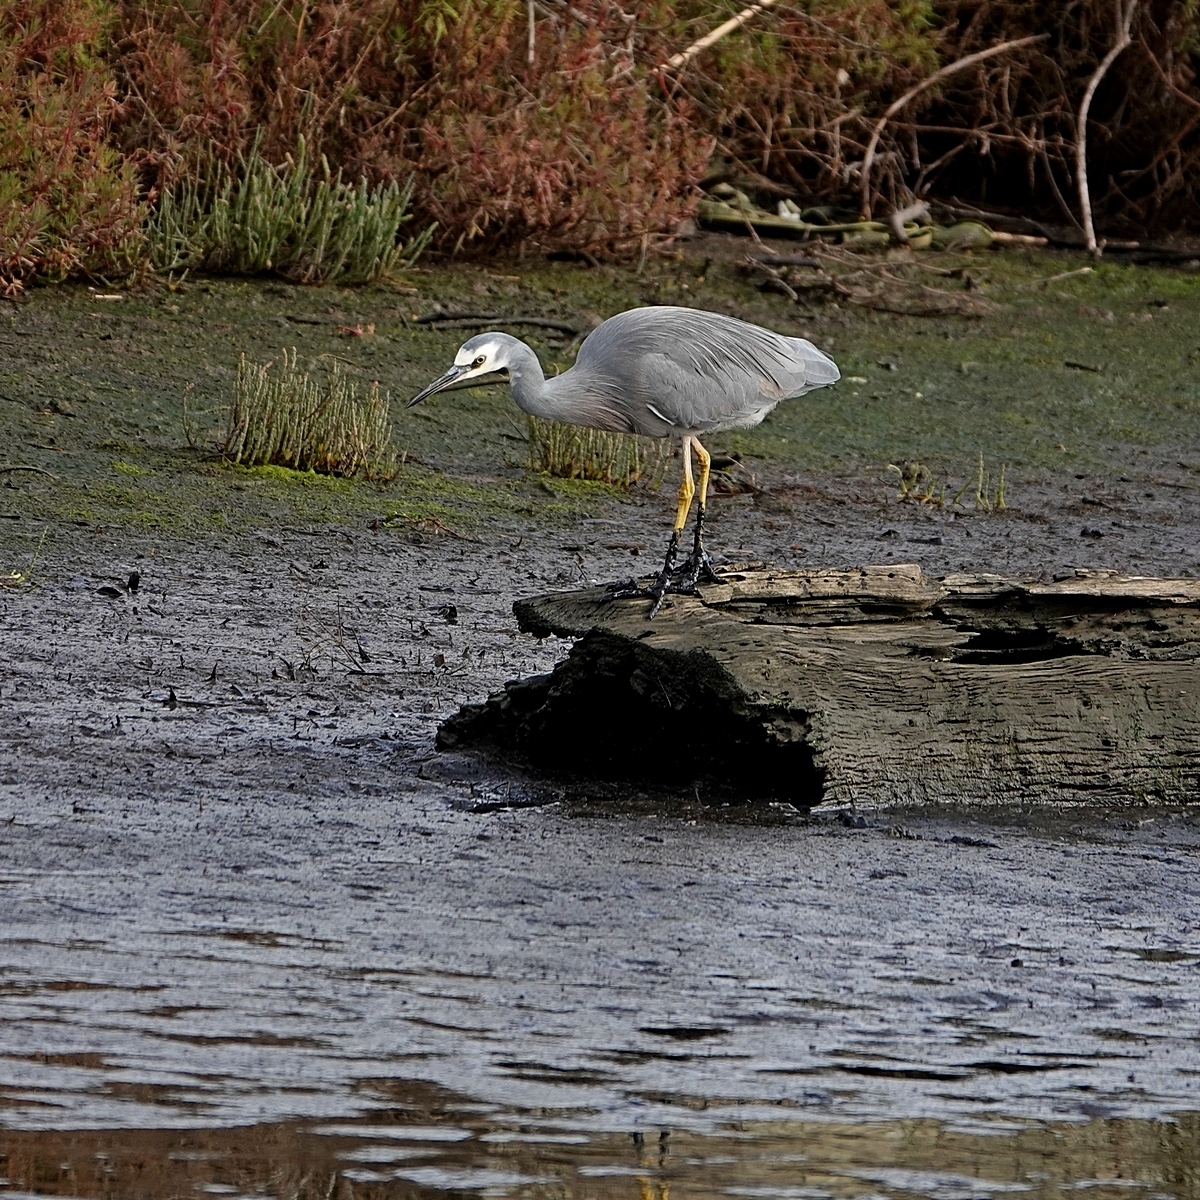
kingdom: Animalia
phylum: Chordata
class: Aves
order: Pelecaniformes
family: Ardeidae
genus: Egretta
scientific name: Egretta novaehollandiae
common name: White-faced heron
